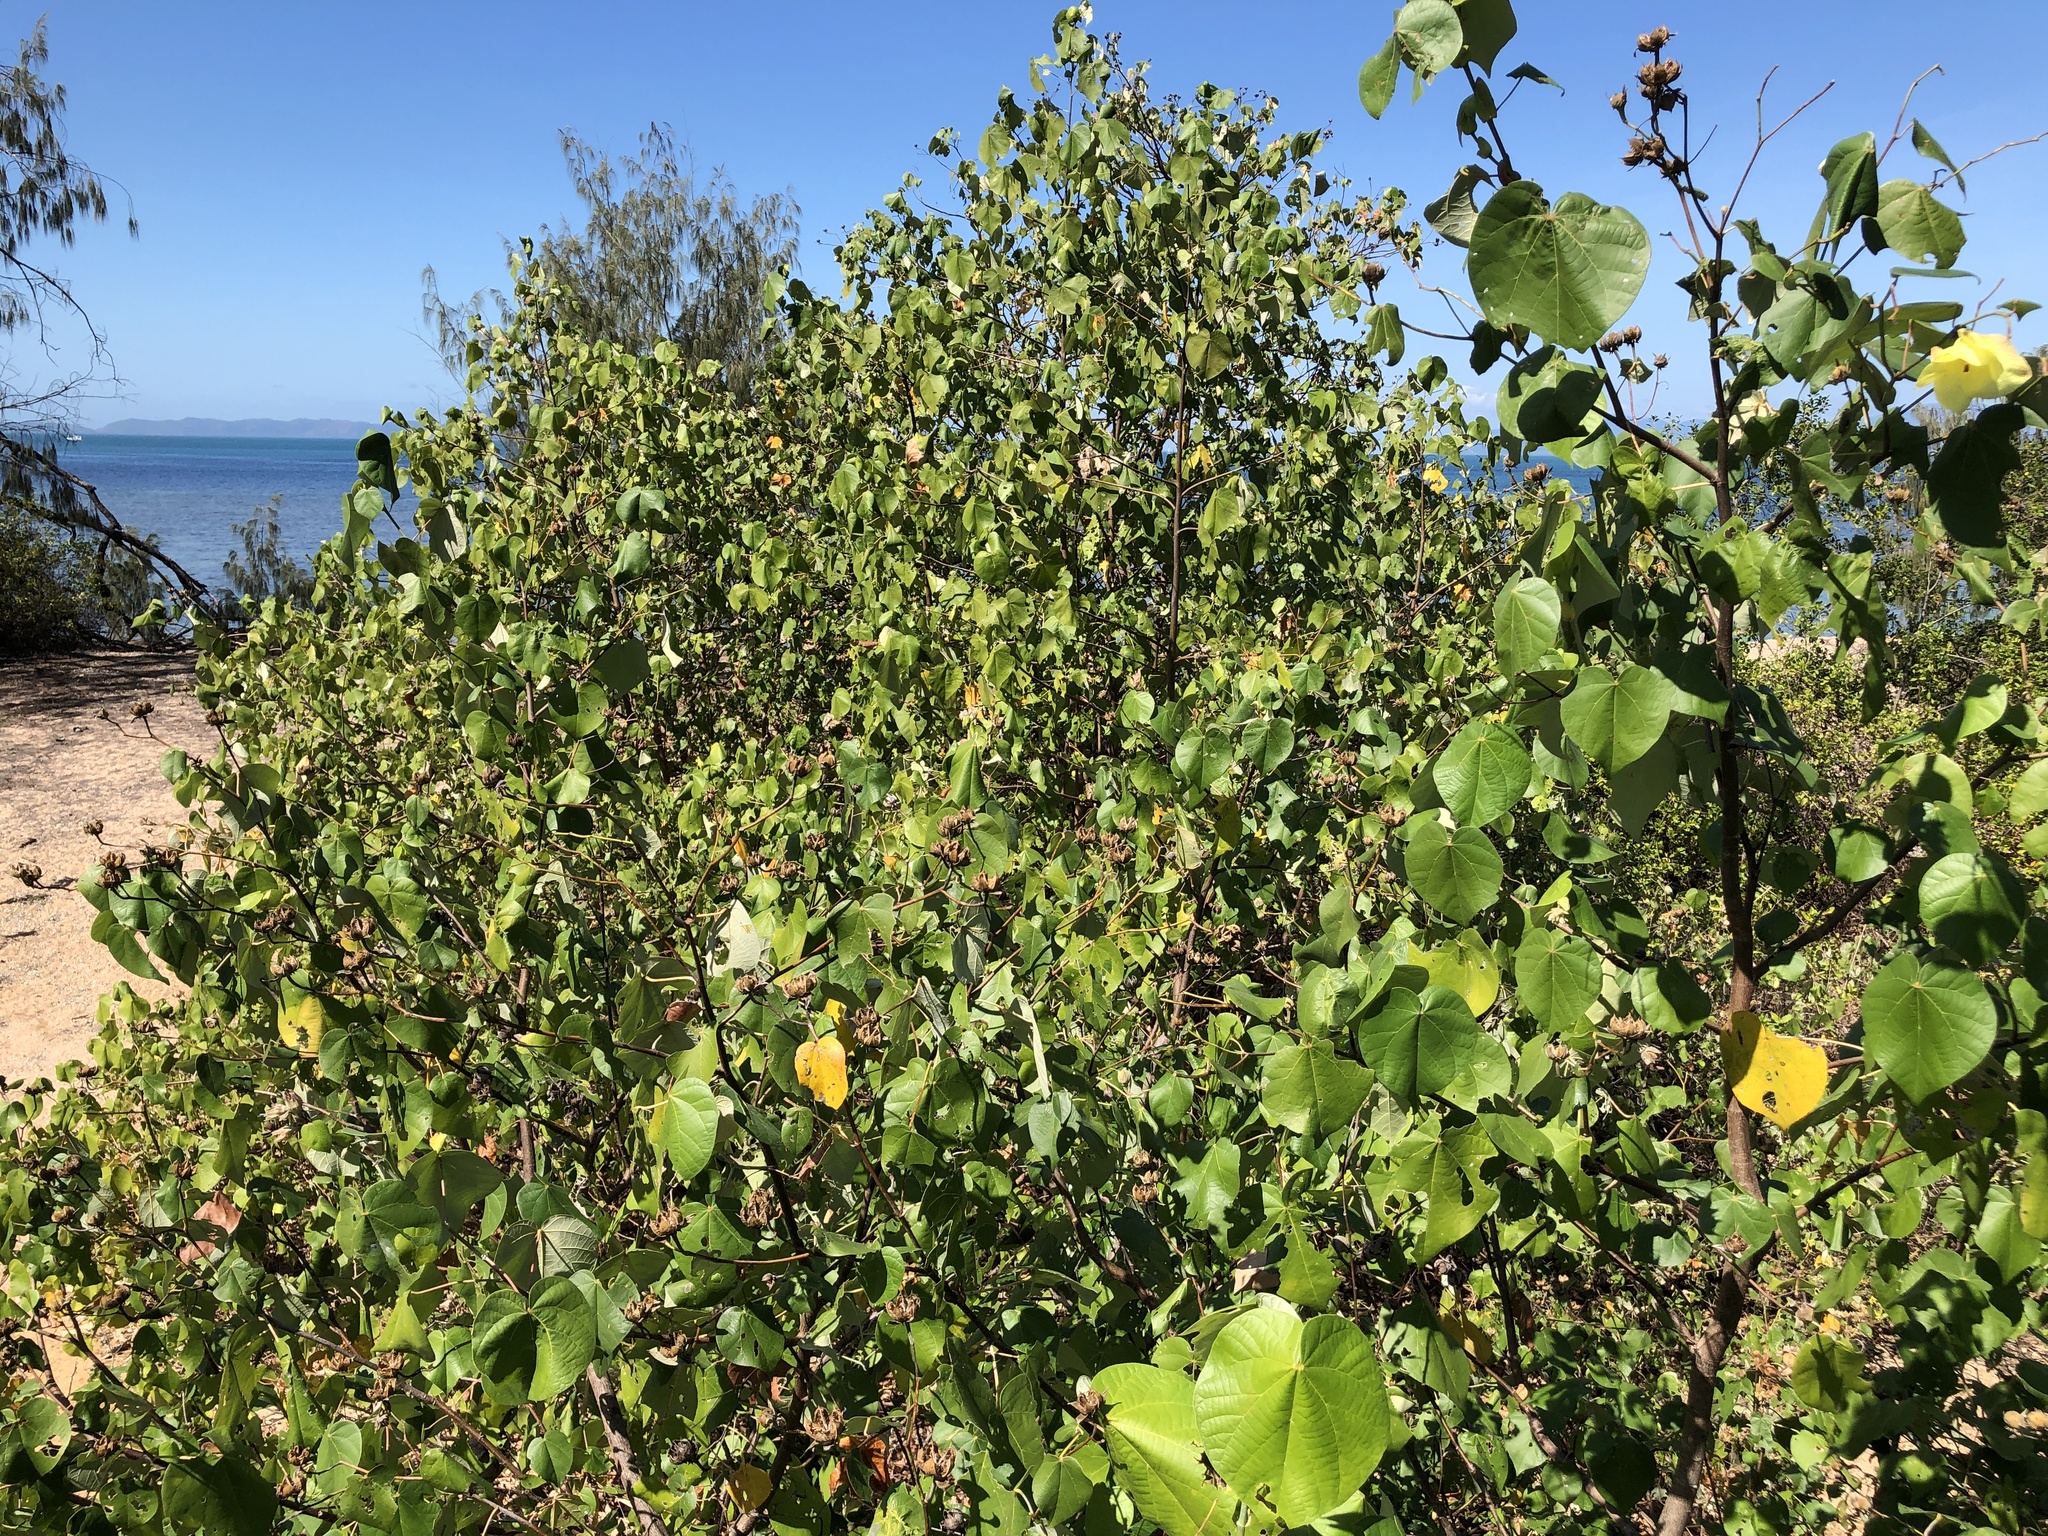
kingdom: Plantae
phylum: Tracheophyta
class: Magnoliopsida
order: Malvales
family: Malvaceae
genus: Talipariti
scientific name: Talipariti tiliaceum
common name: Sea hibiscus
